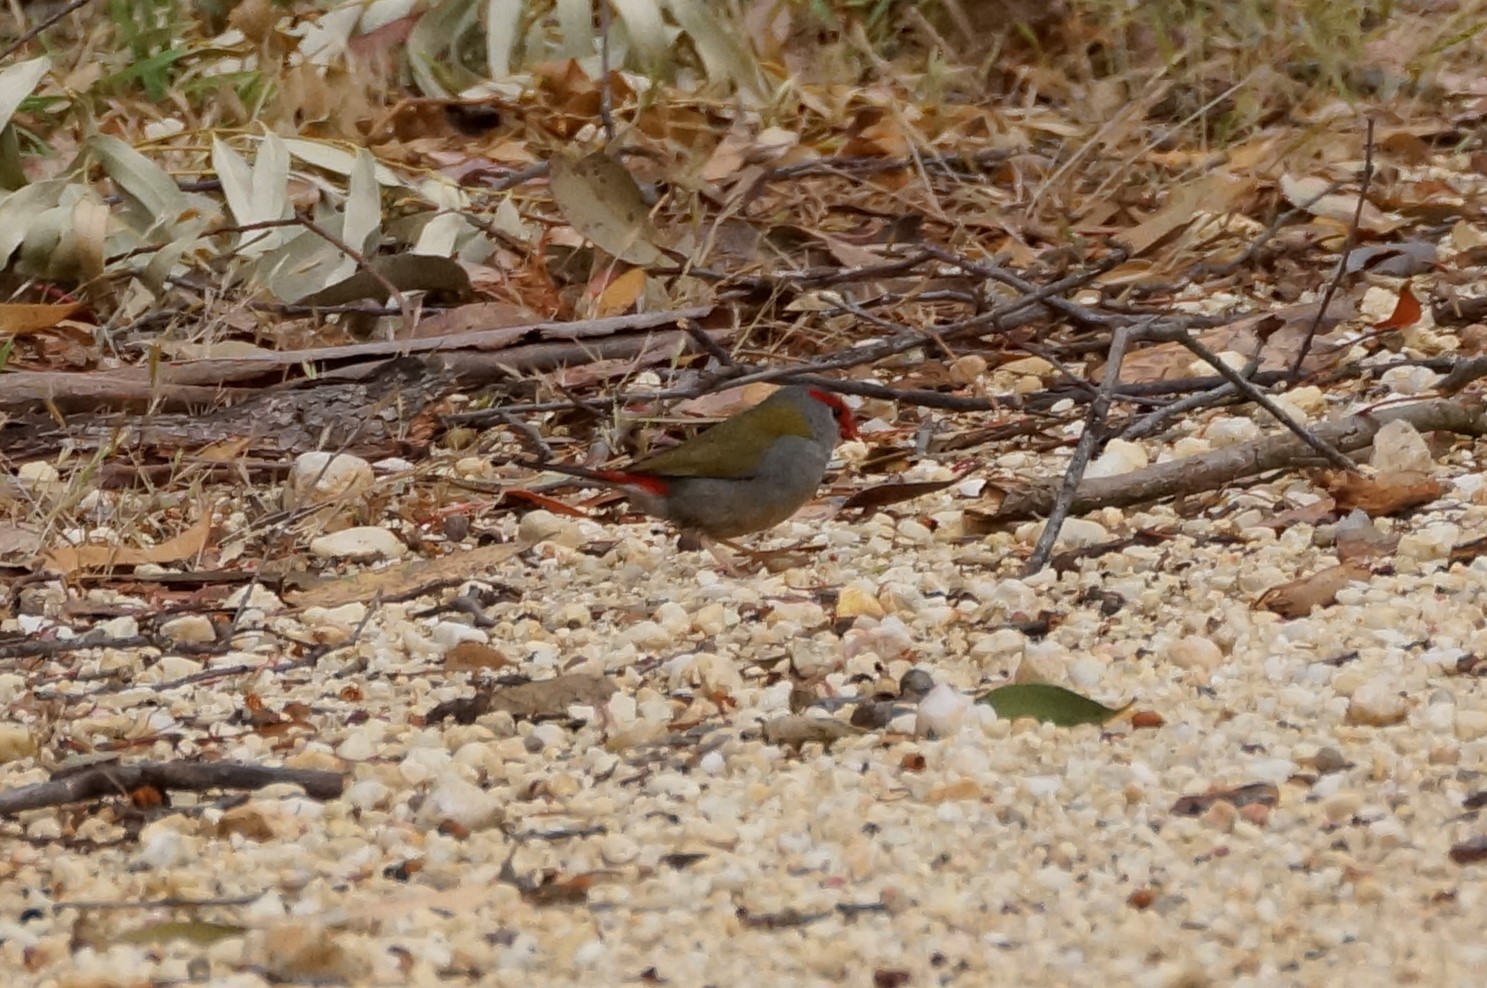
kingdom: Animalia
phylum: Chordata
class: Aves
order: Passeriformes
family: Estrildidae
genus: Neochmia
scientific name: Neochmia temporalis
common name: Red-browed finch
